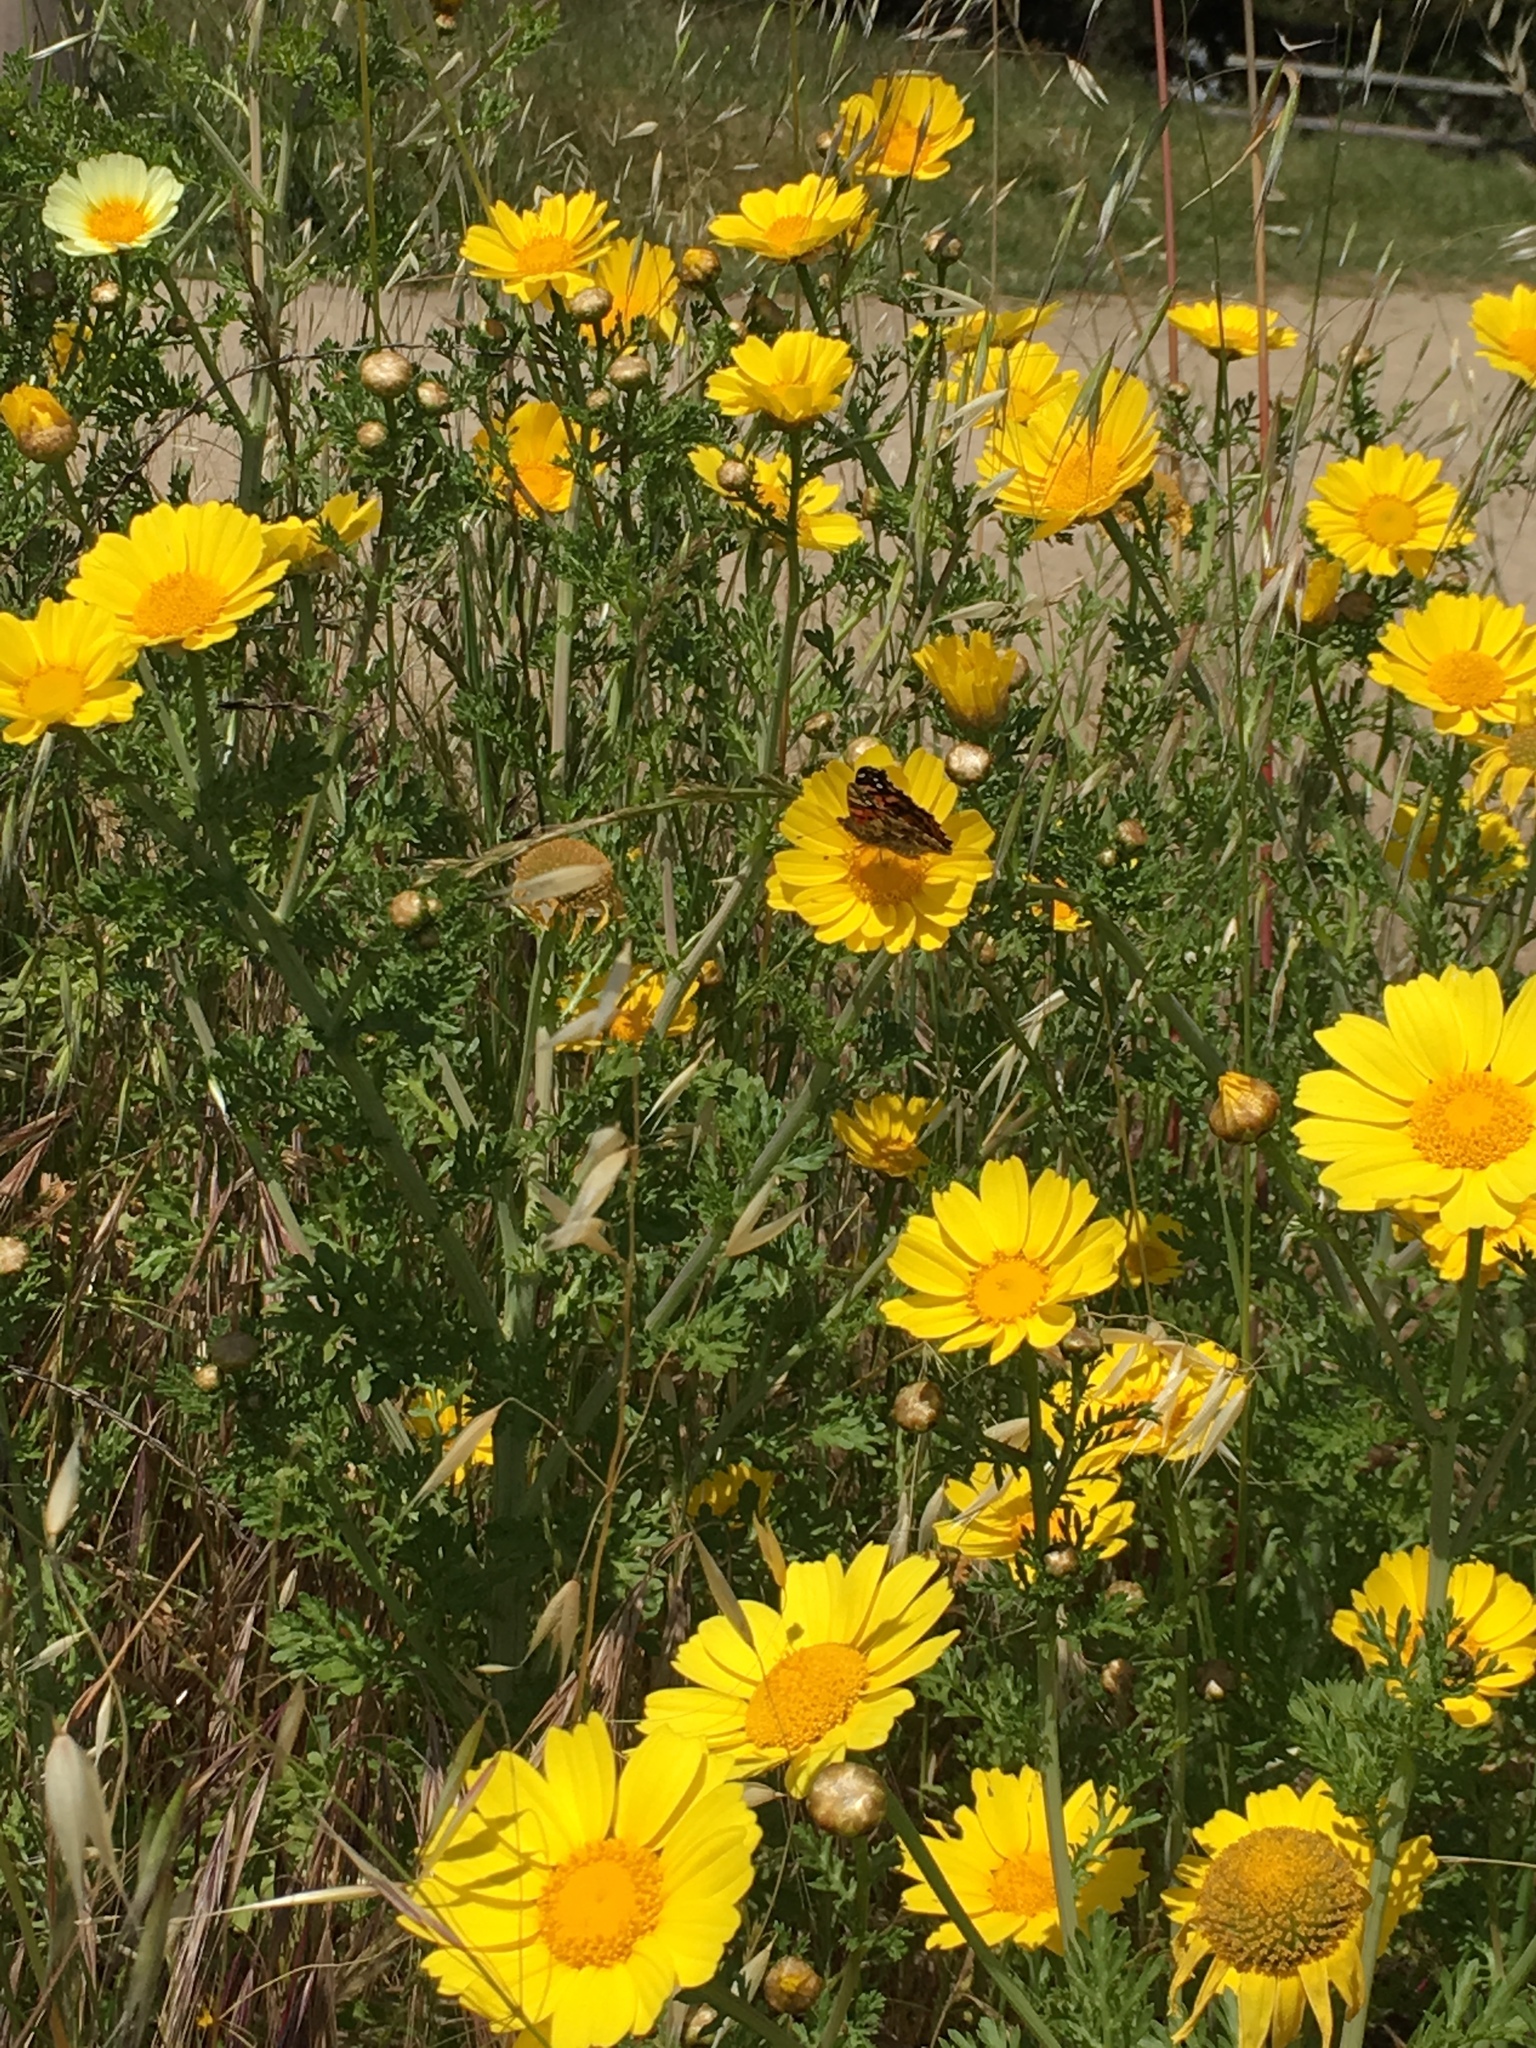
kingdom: Plantae
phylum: Tracheophyta
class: Magnoliopsida
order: Asterales
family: Asteraceae
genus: Glebionis
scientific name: Glebionis coronaria
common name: Crowndaisy
